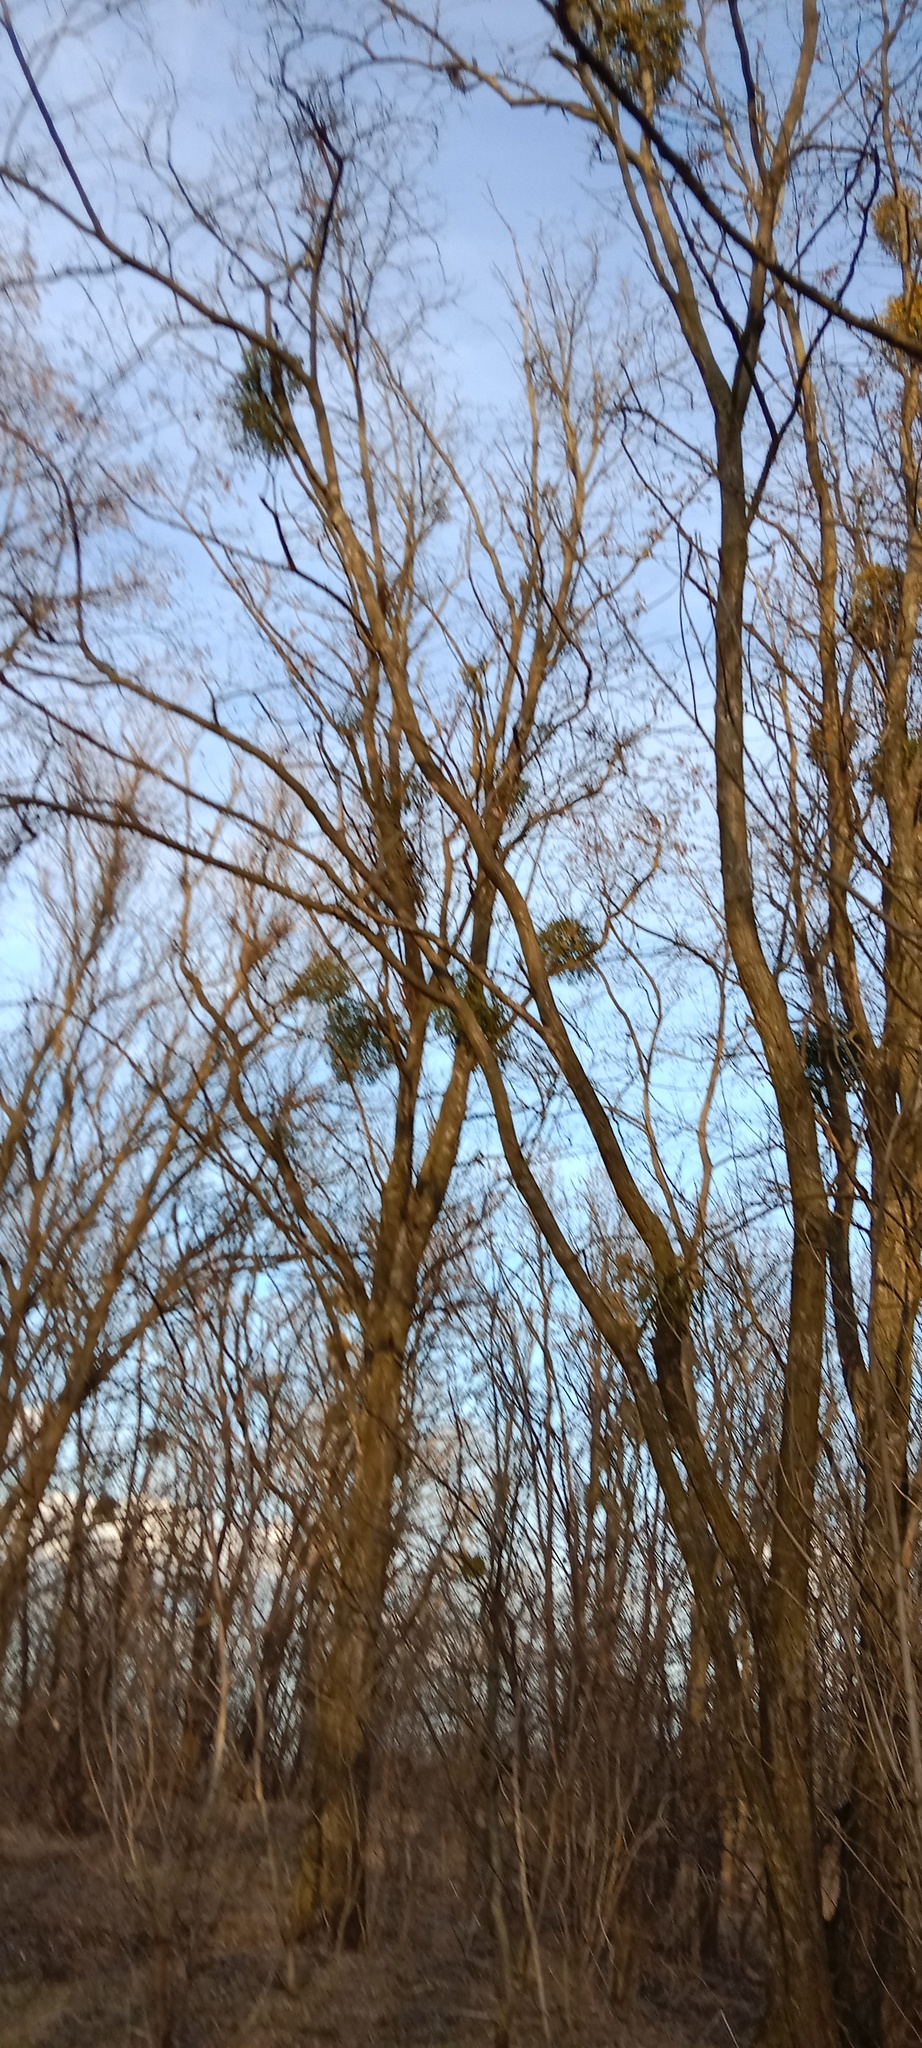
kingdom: Plantae
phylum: Tracheophyta
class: Magnoliopsida
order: Santalales
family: Viscaceae
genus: Viscum
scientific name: Viscum album
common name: Mistletoe
